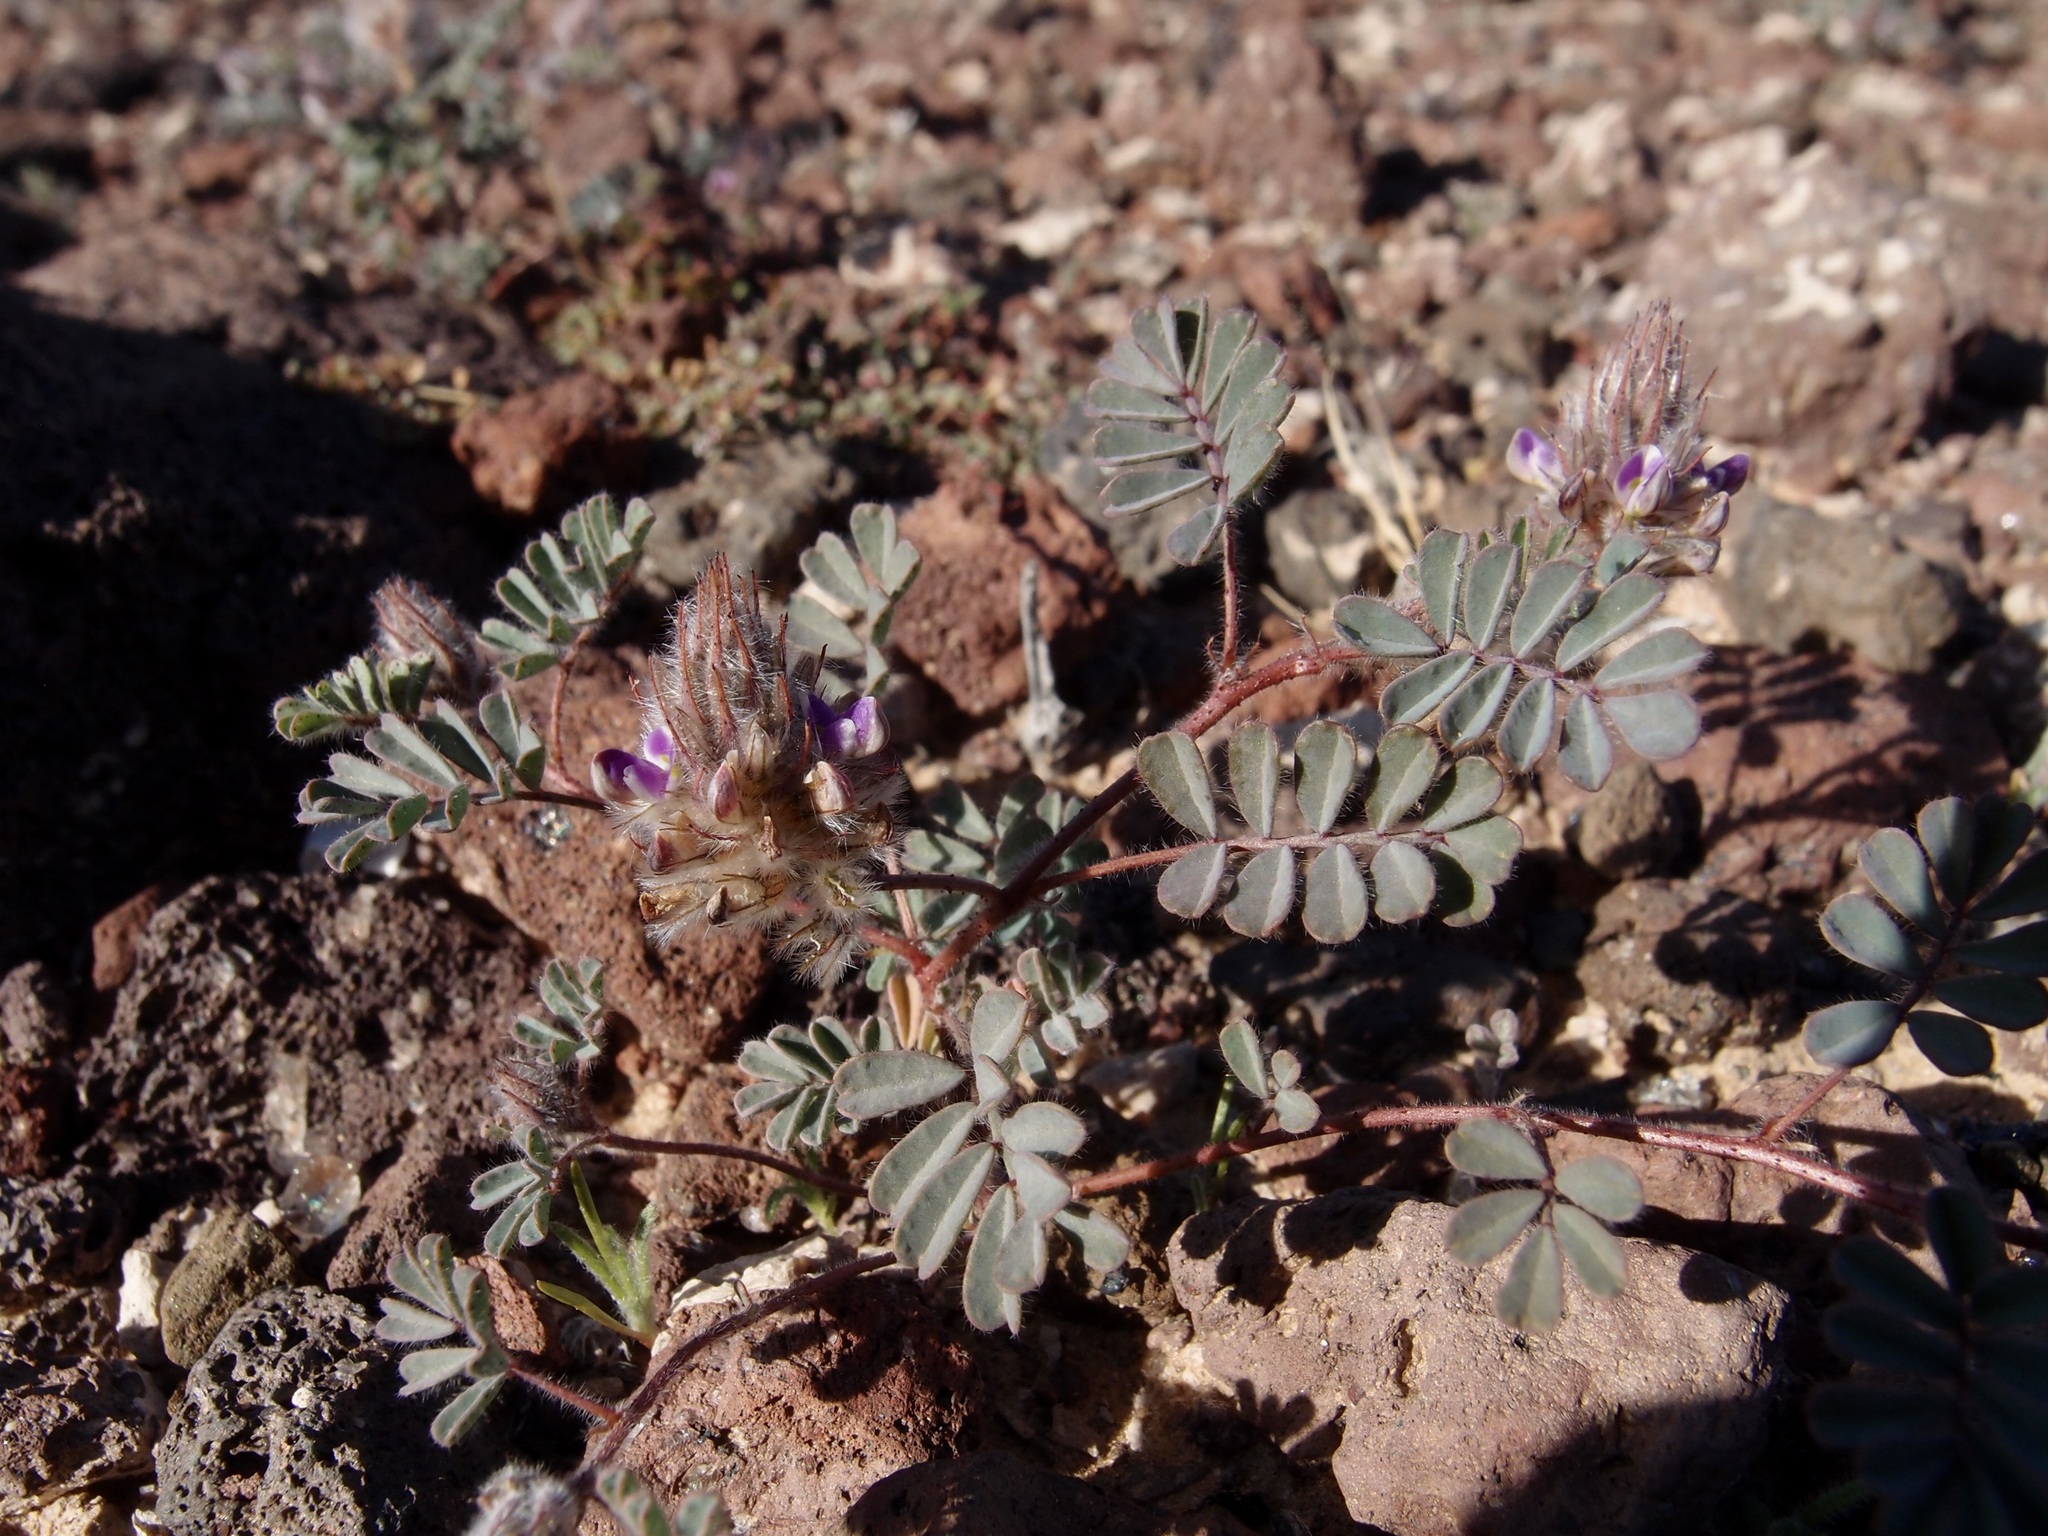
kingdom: Plantae
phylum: Tracheophyta
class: Magnoliopsida
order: Fabales
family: Fabaceae
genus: Dalea
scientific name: Dalea mollis
